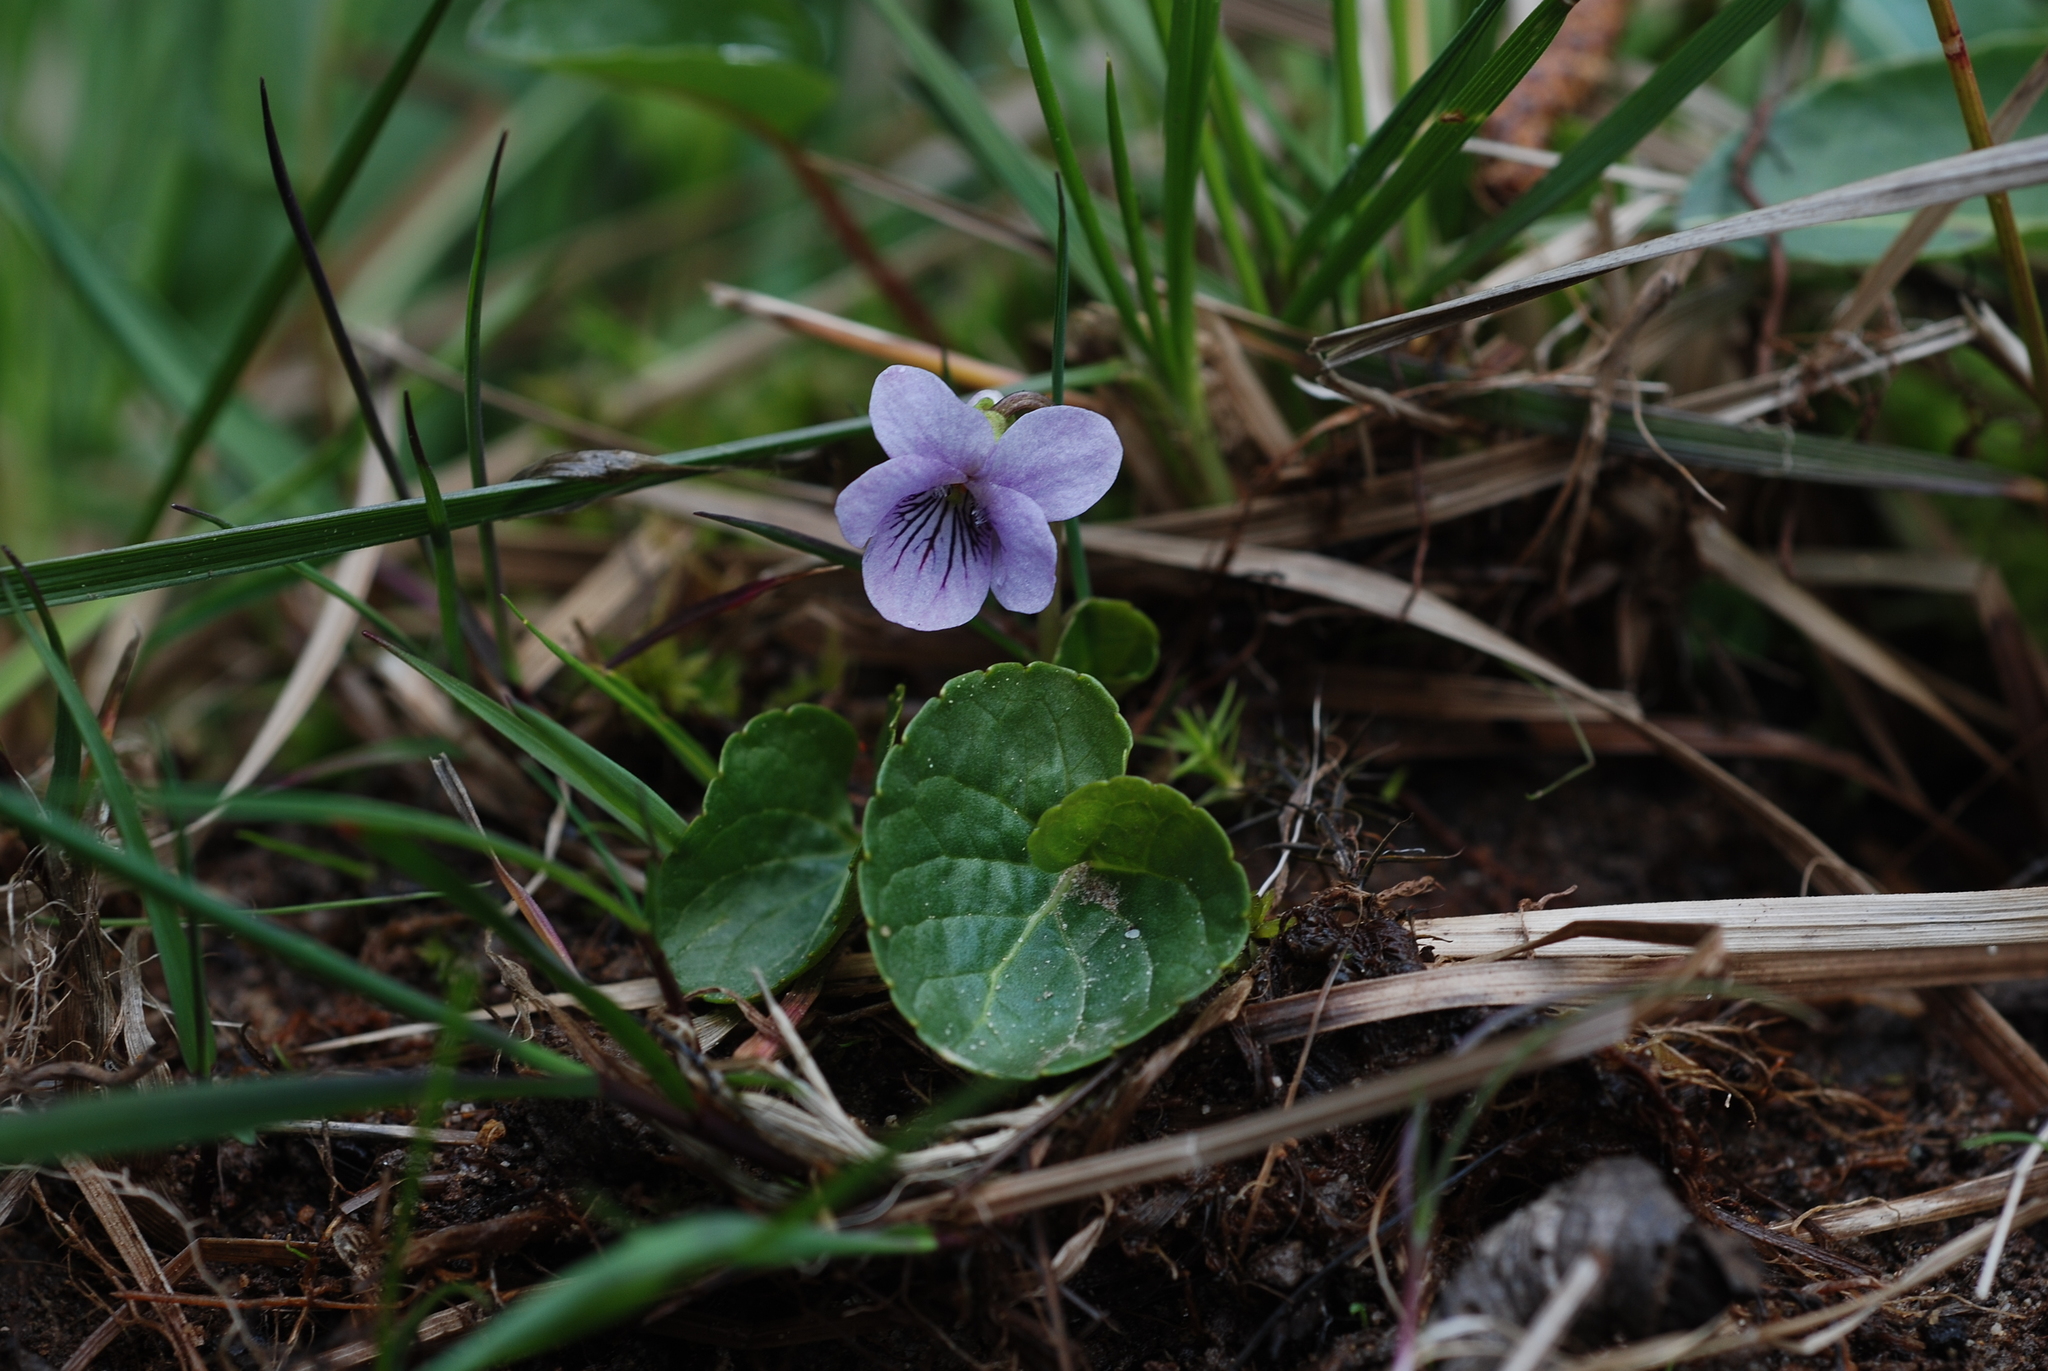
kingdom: Plantae
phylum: Tracheophyta
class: Magnoliopsida
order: Malpighiales
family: Violaceae
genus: Viola
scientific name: Viola palustris
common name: Marsh violet
